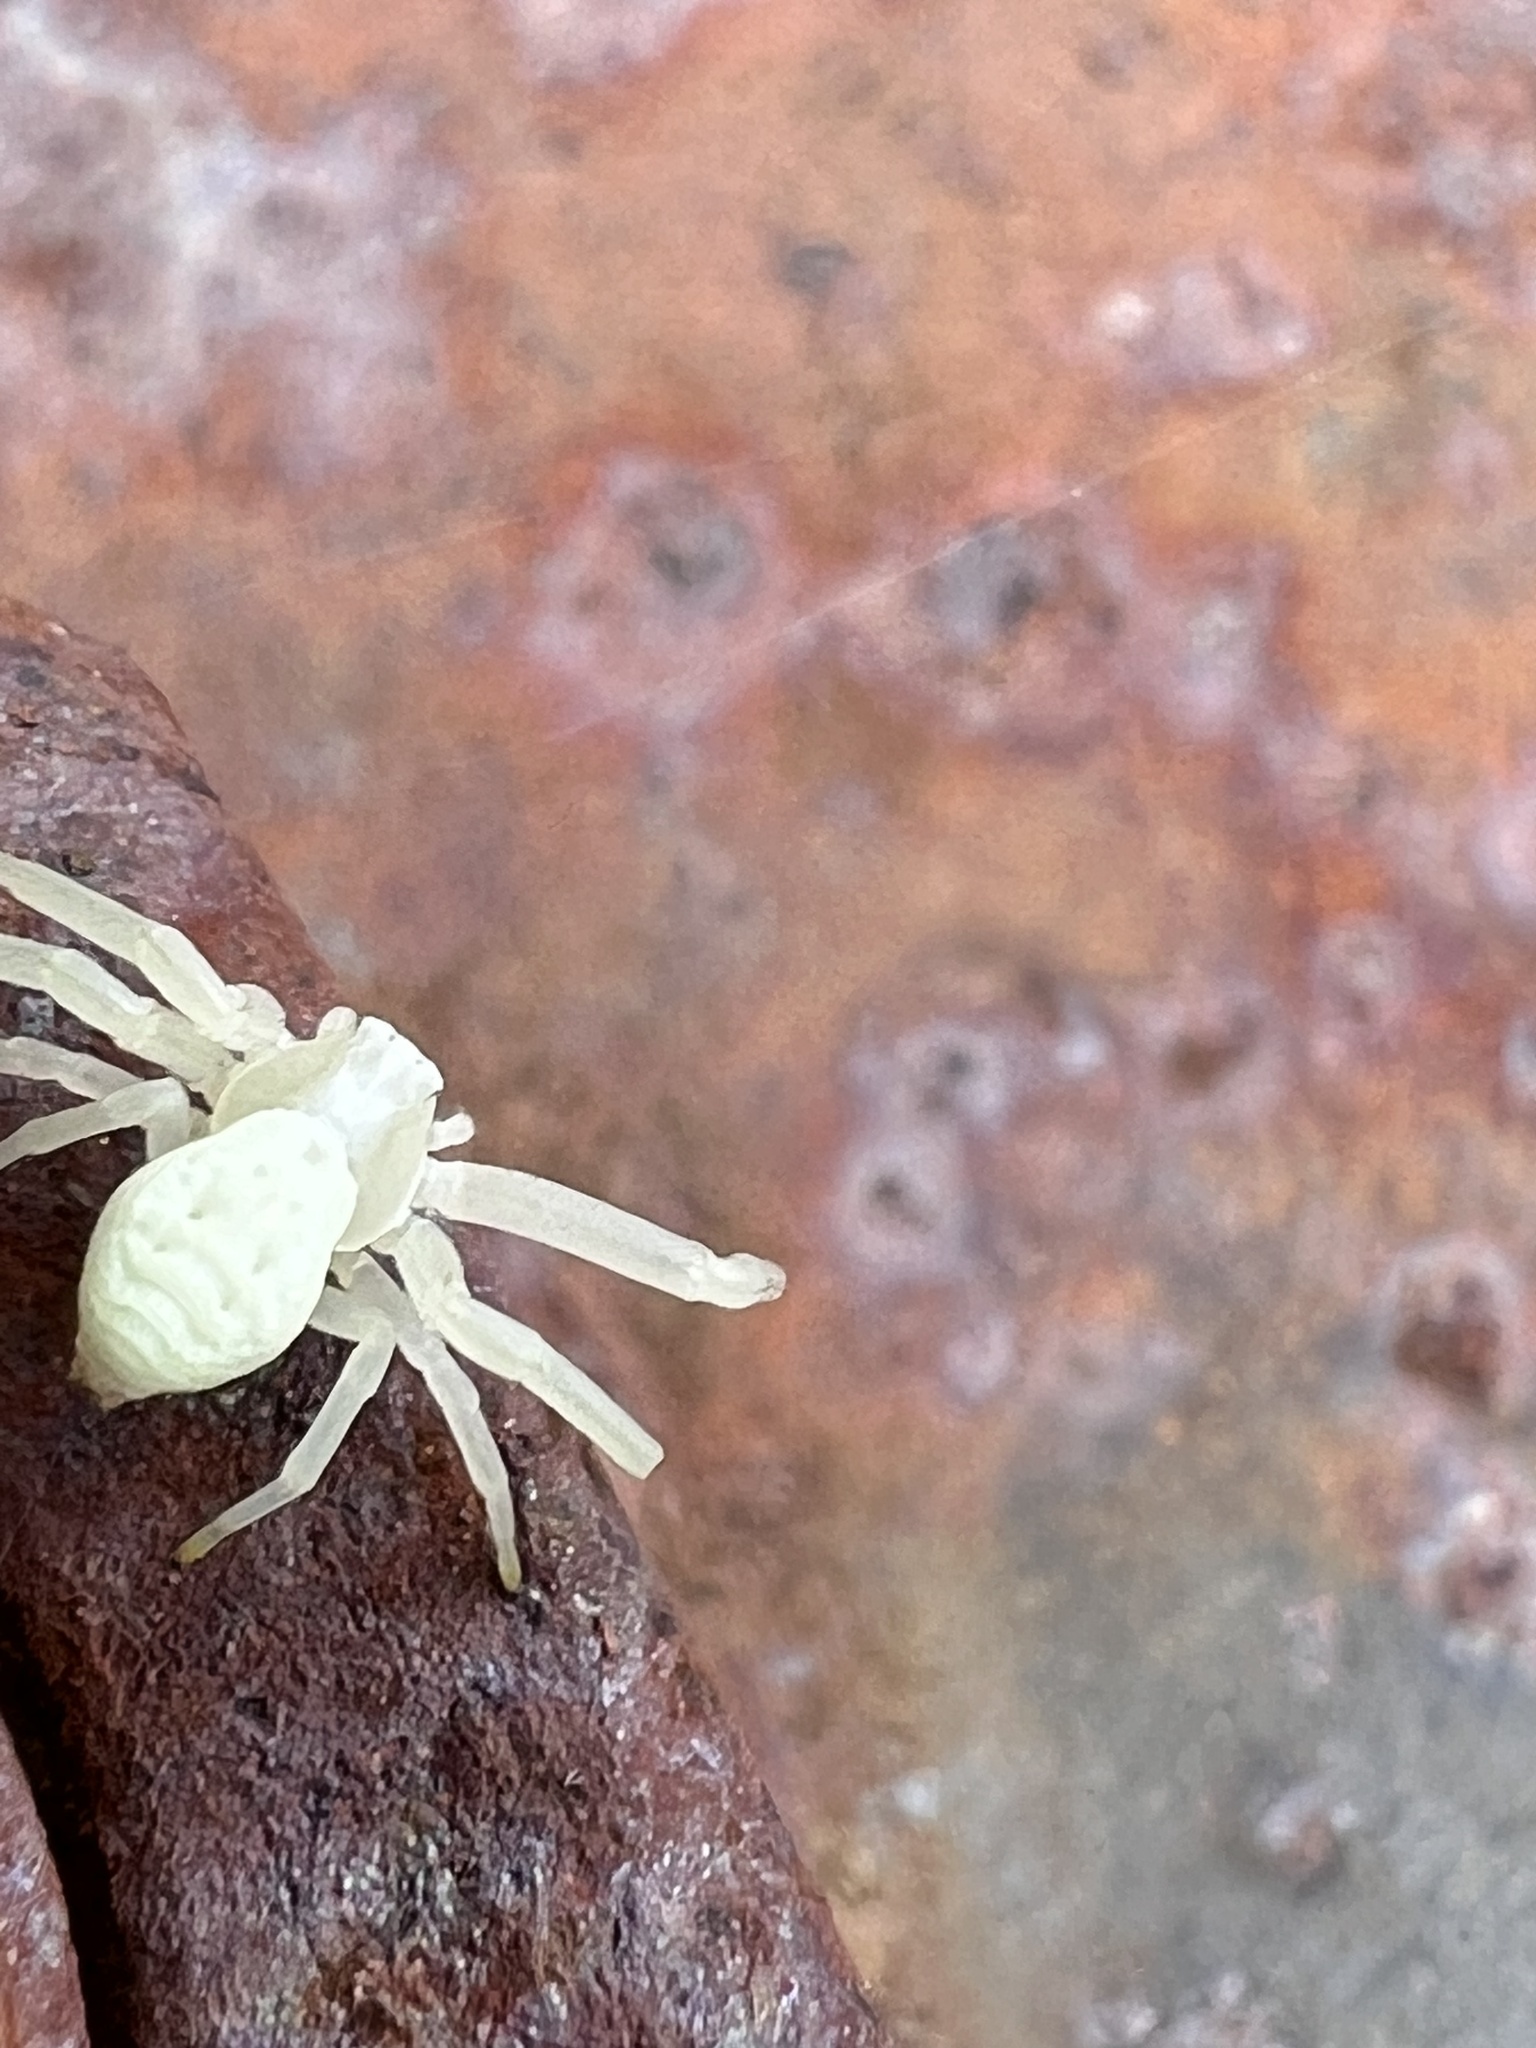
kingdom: Animalia
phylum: Arthropoda
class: Arachnida
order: Araneae
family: Thomisidae
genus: Misumena
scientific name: Misumena vatia
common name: Goldenrod crab spider
